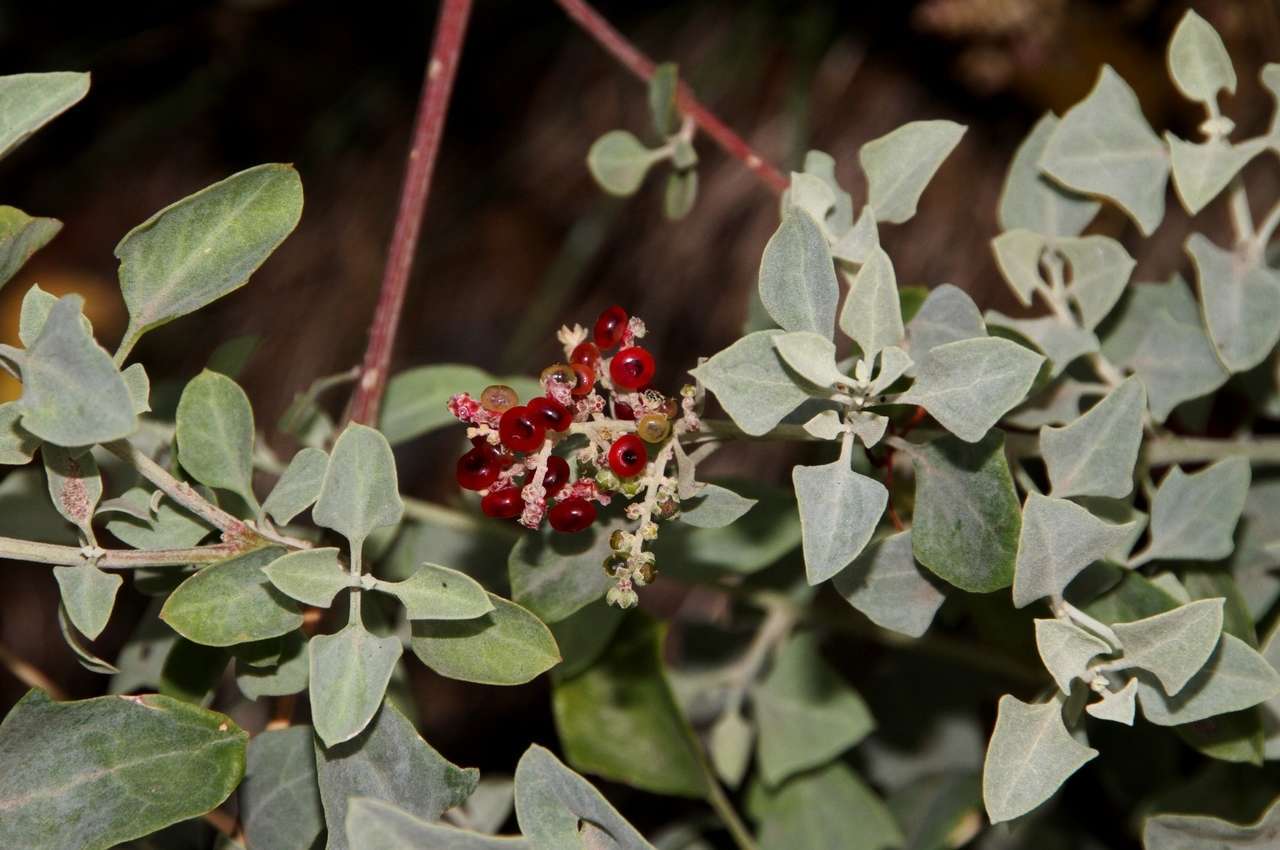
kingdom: Plantae
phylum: Tracheophyta
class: Magnoliopsida
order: Caryophyllales
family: Amaranthaceae
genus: Chenopodium
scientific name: Chenopodium parabolicum
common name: Old-man-saltbush
